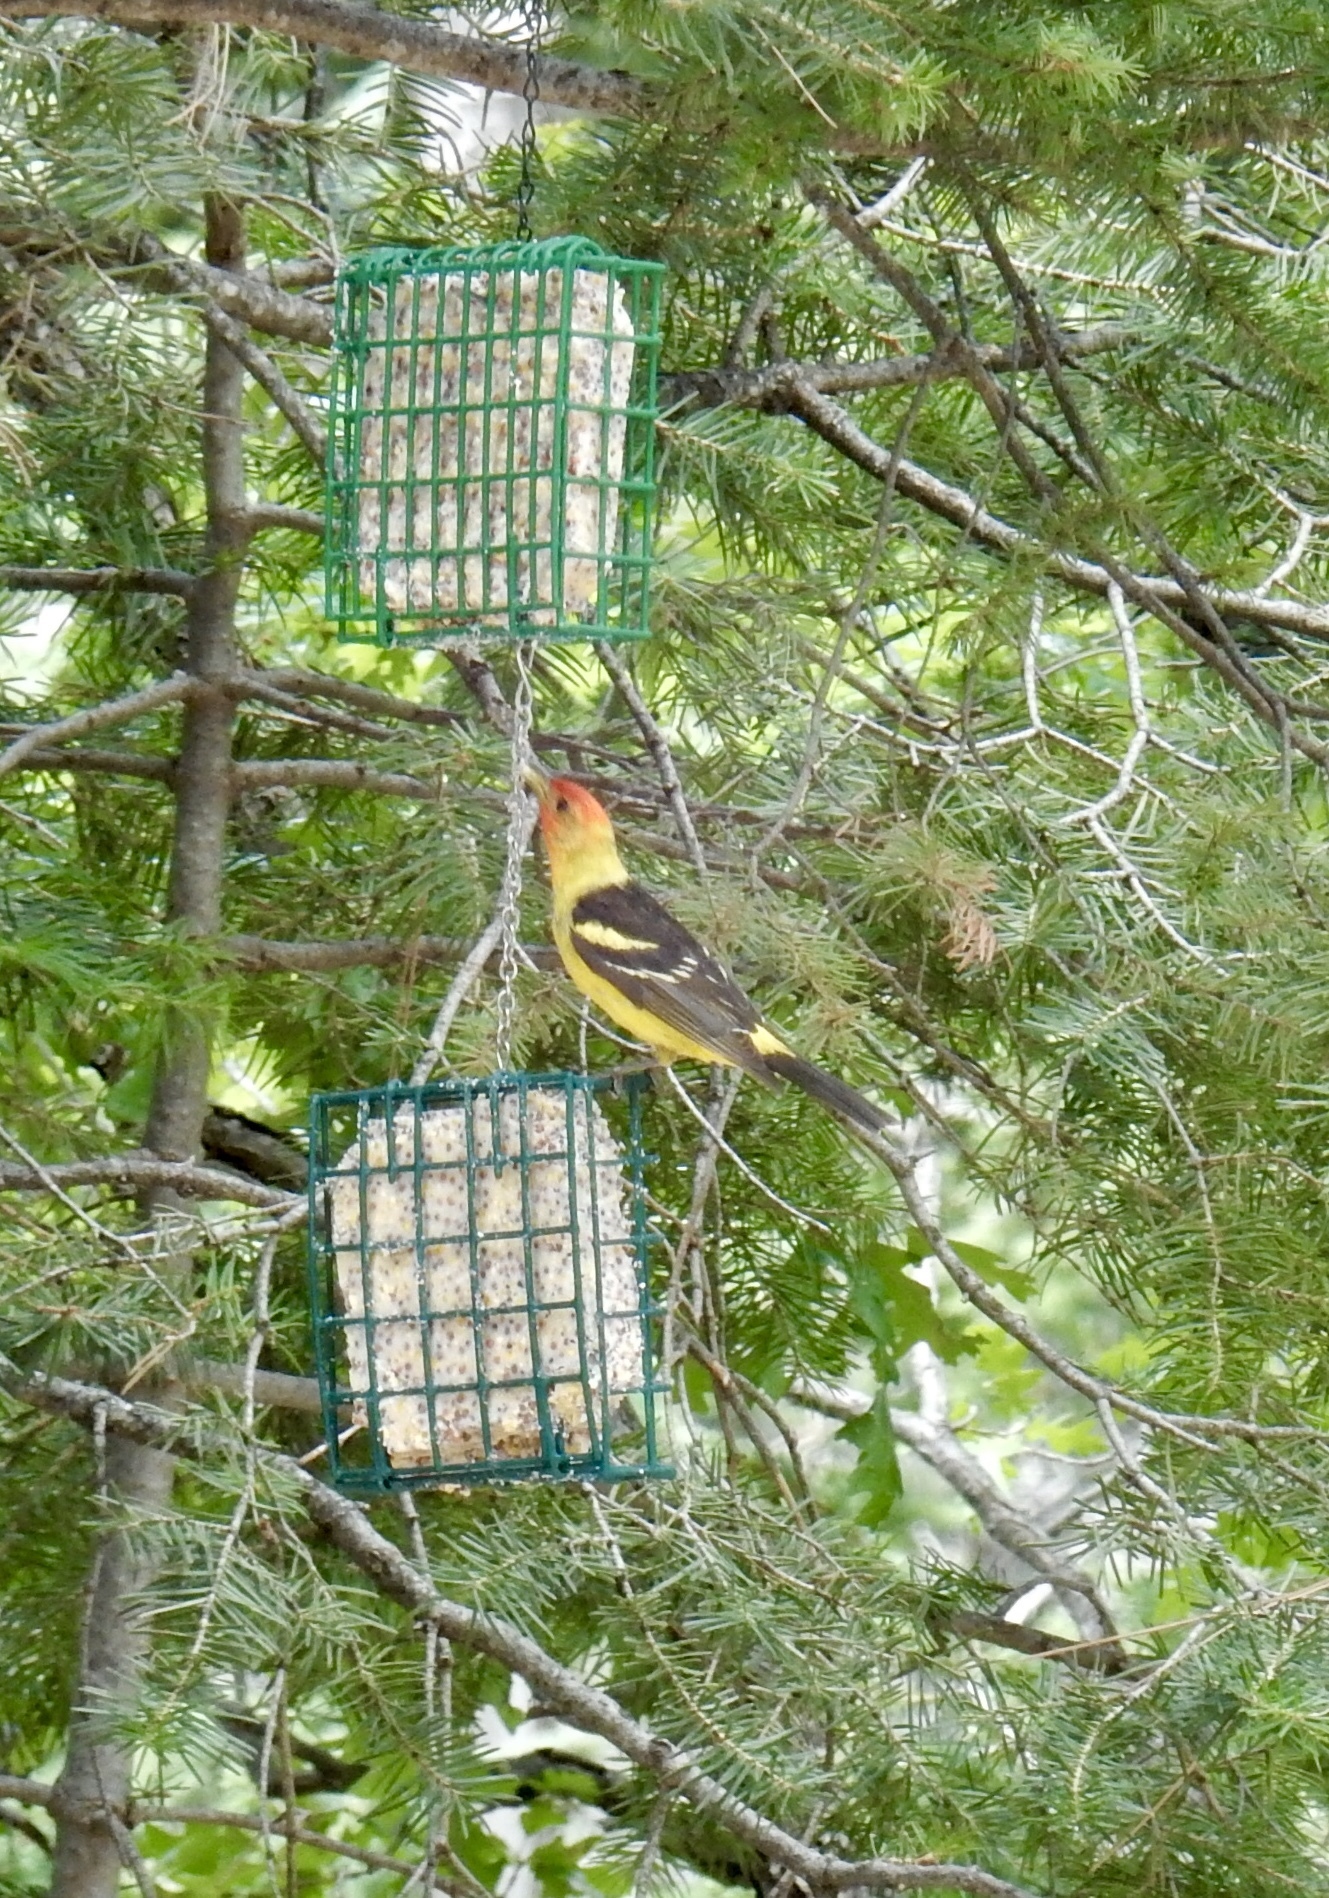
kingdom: Animalia
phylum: Chordata
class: Aves
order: Passeriformes
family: Cardinalidae
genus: Piranga
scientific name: Piranga ludoviciana
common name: Western tanager
